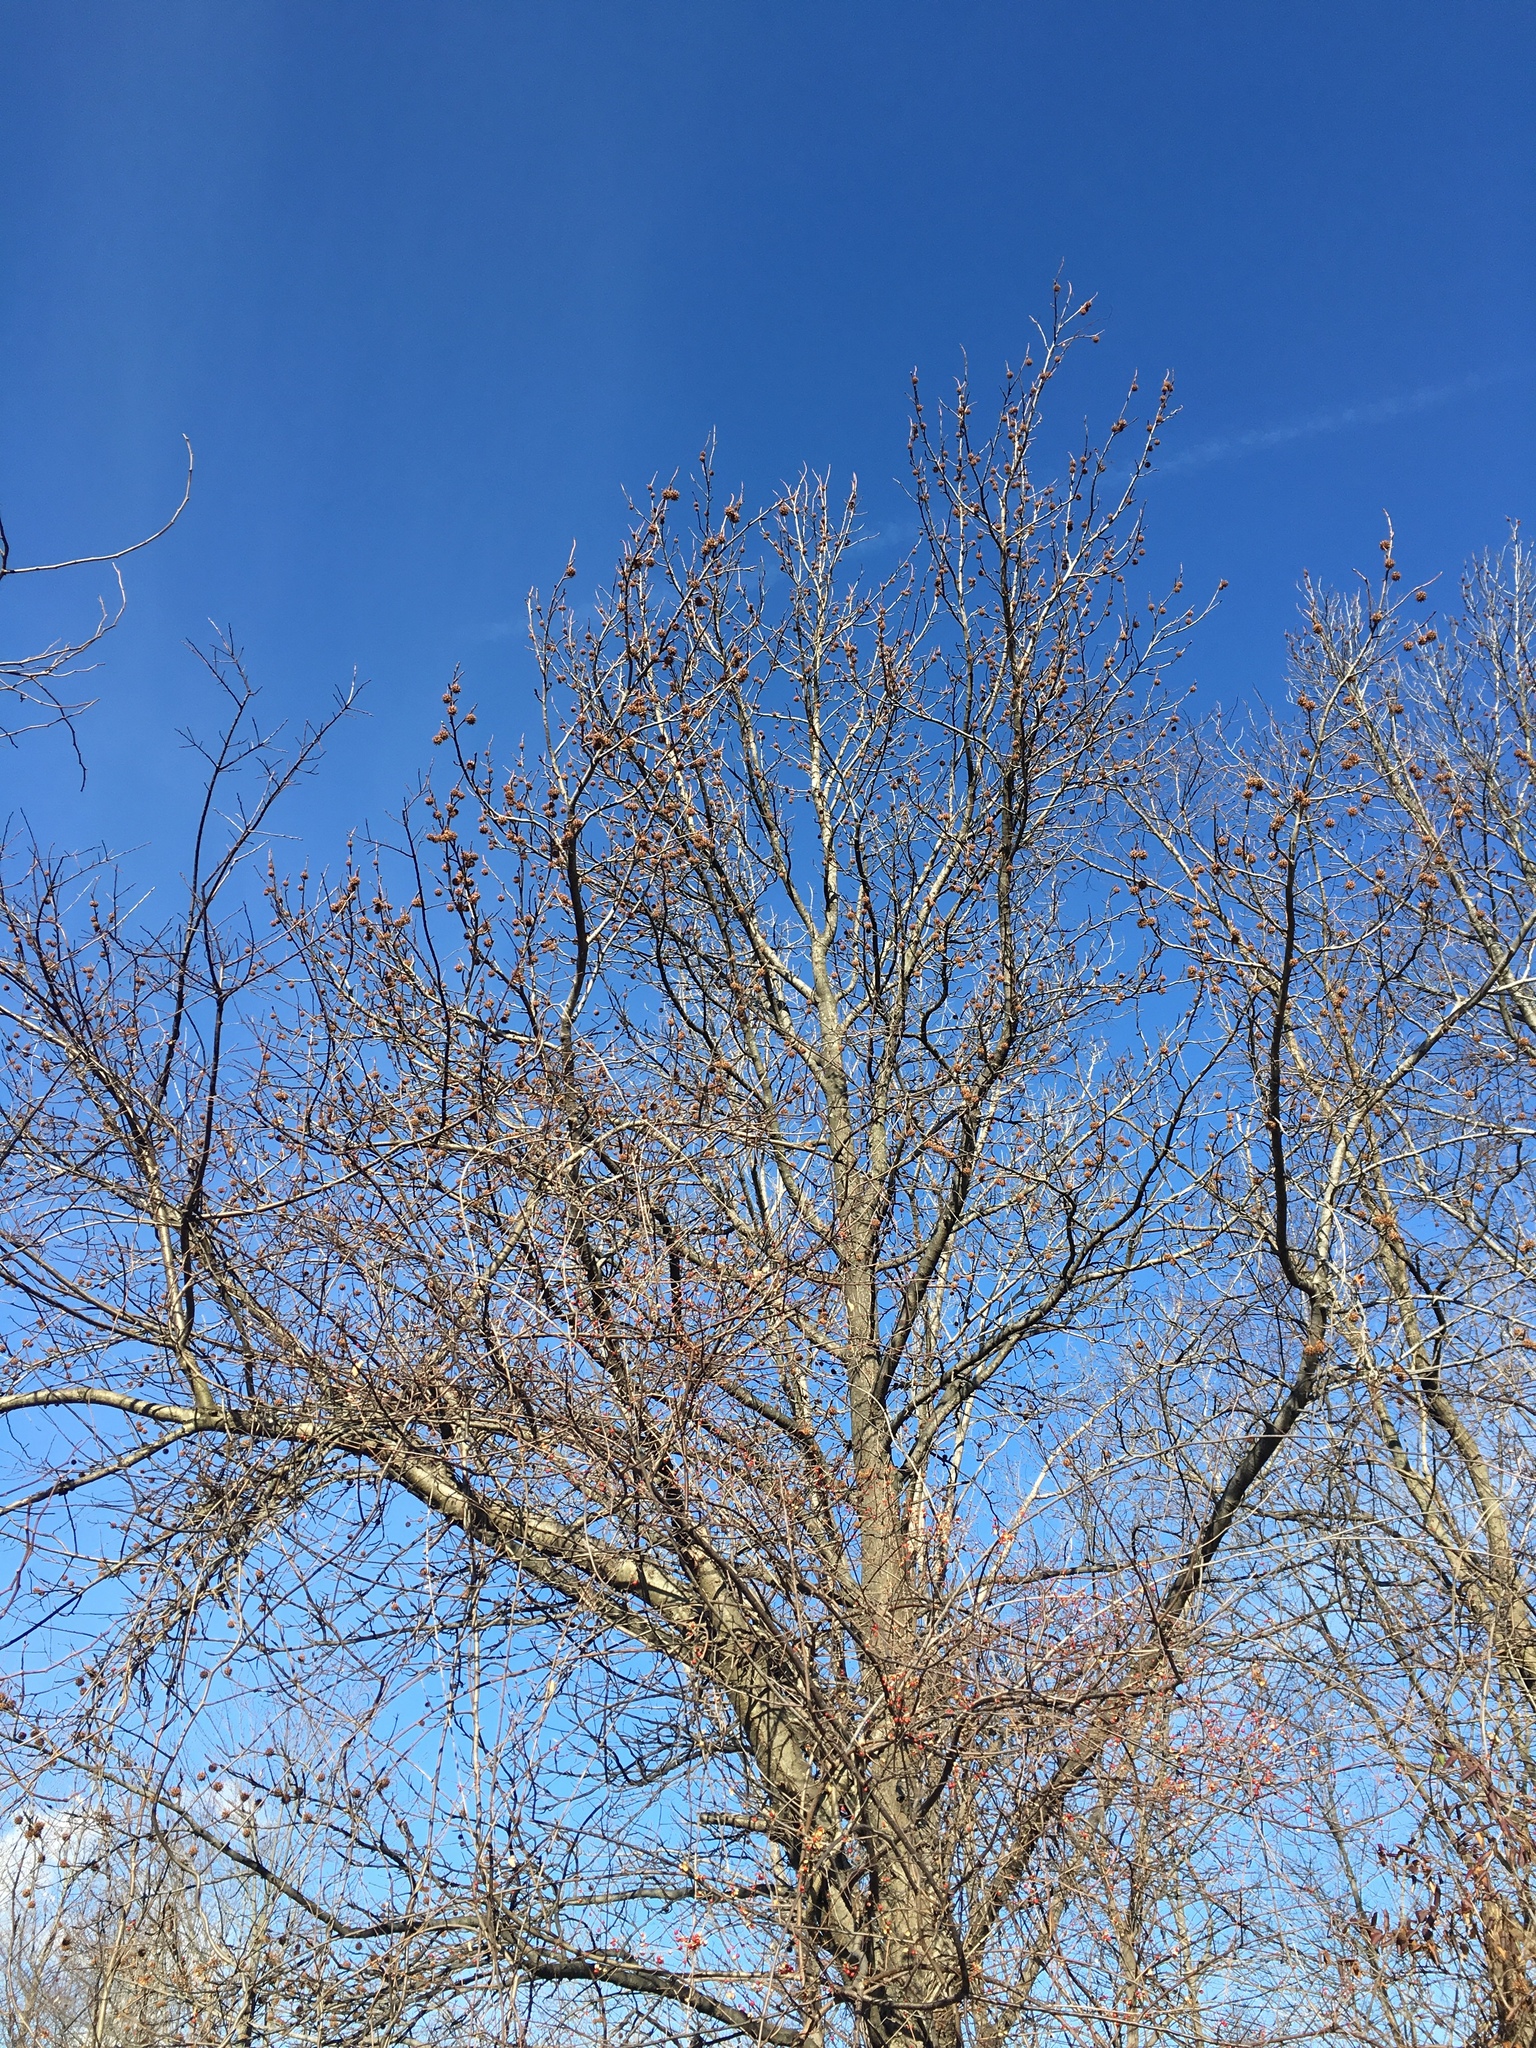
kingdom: Plantae
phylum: Tracheophyta
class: Magnoliopsida
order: Saxifragales
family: Altingiaceae
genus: Liquidambar
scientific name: Liquidambar styraciflua
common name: Sweet gum
